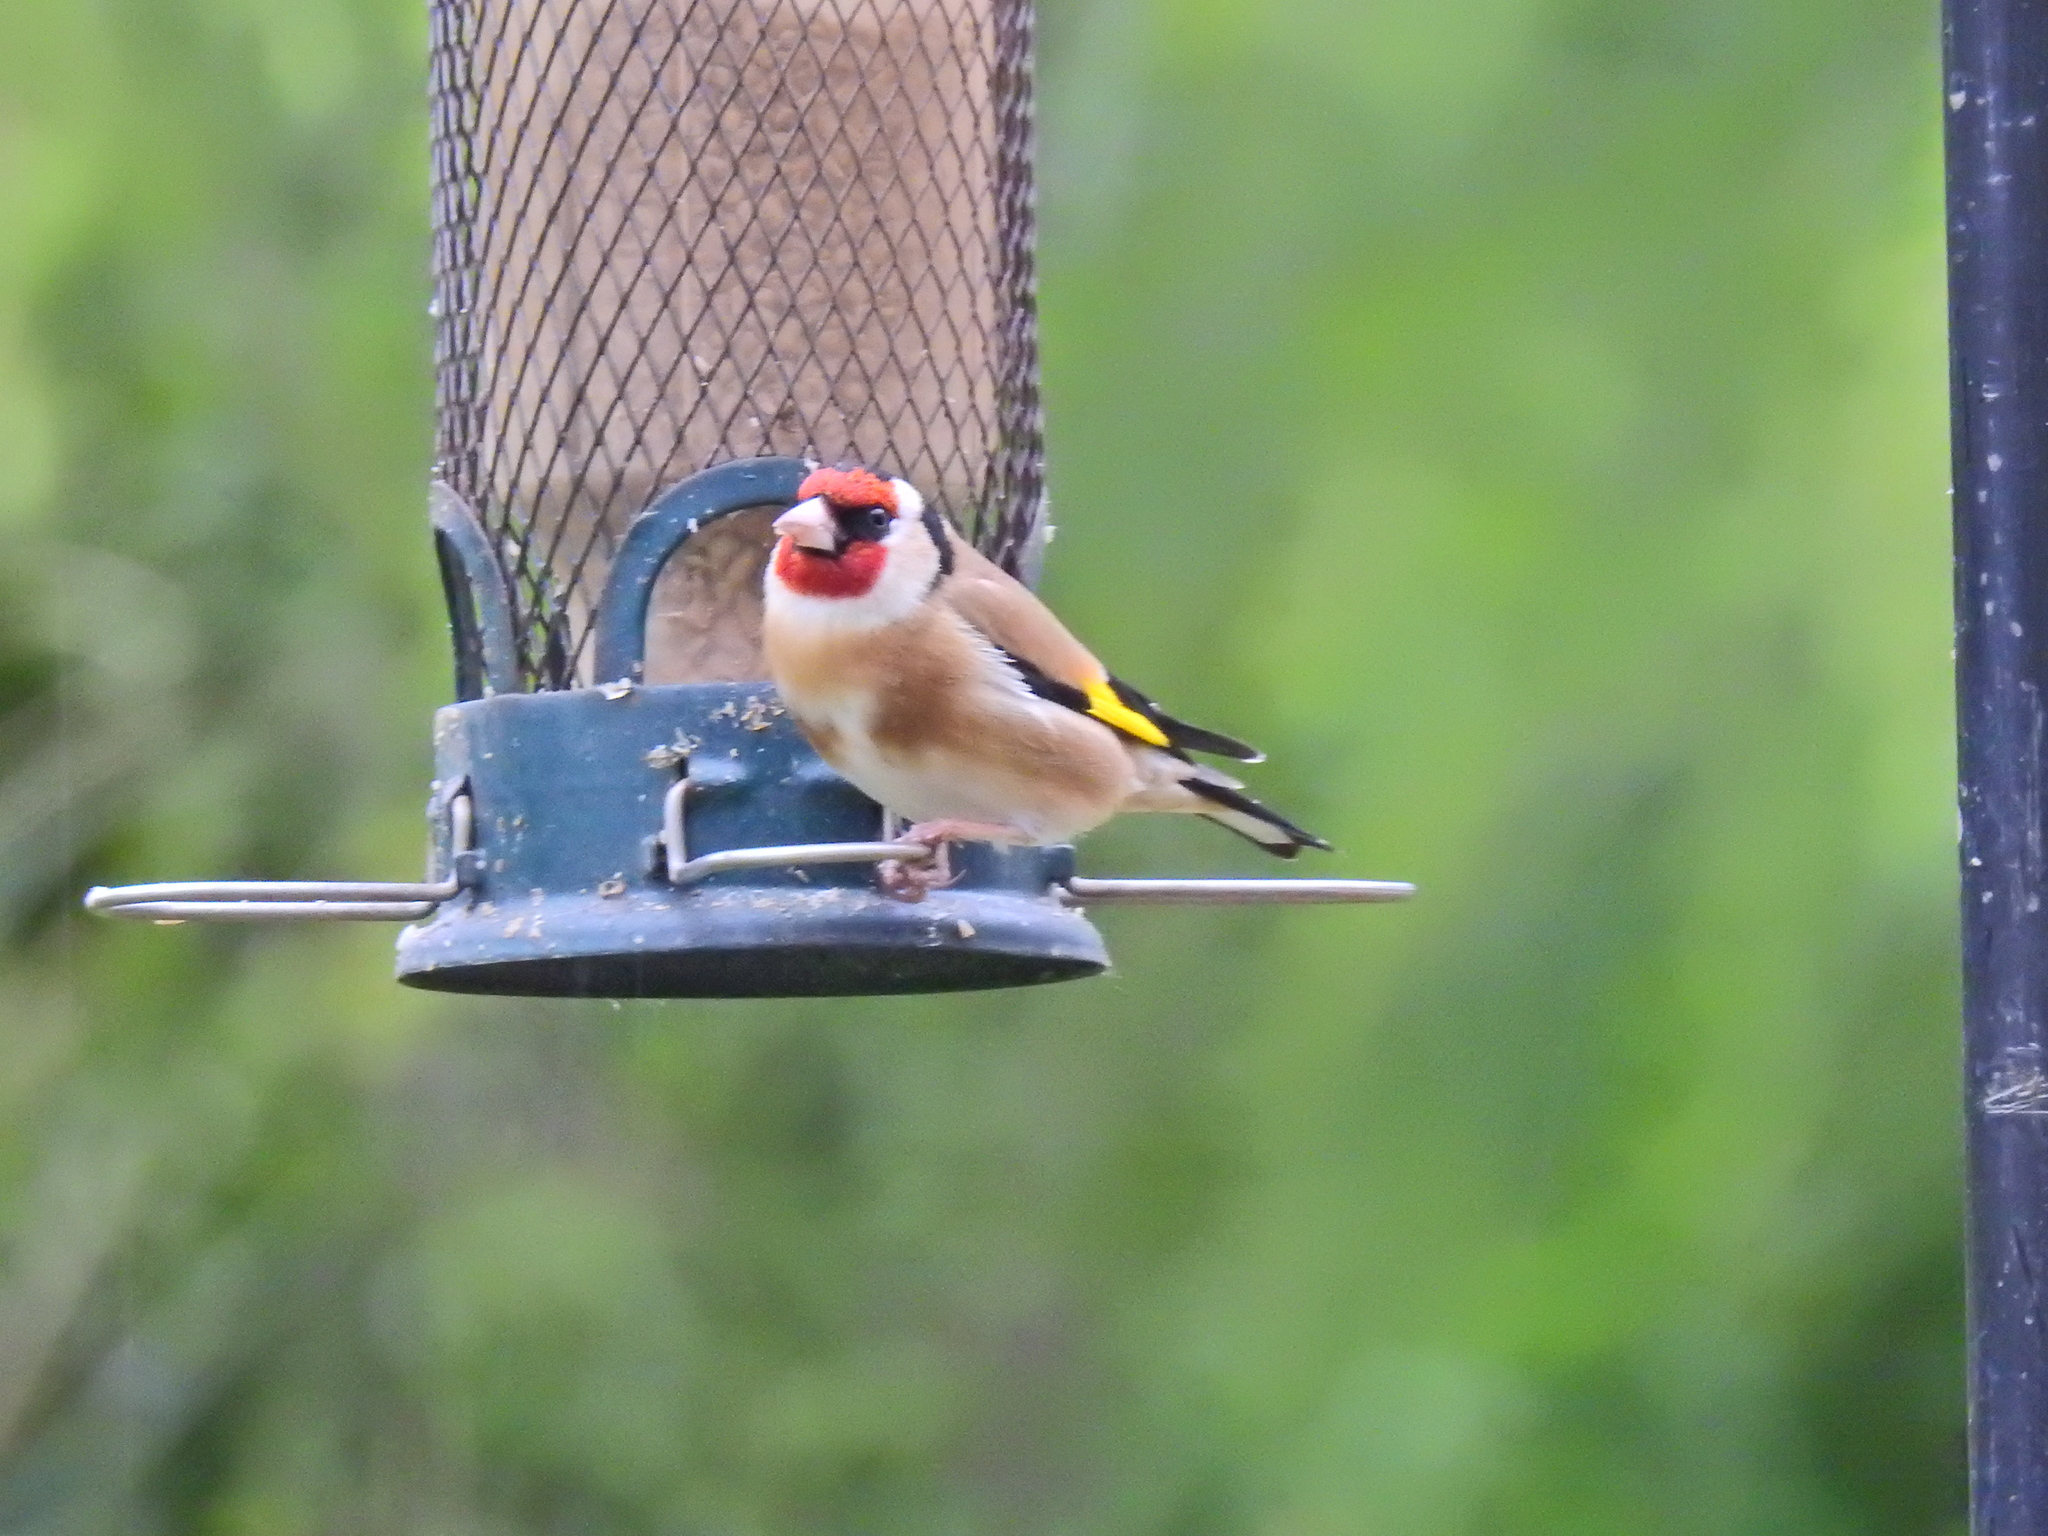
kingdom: Animalia
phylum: Chordata
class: Aves
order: Passeriformes
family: Fringillidae
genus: Carduelis
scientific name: Carduelis carduelis
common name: European goldfinch
